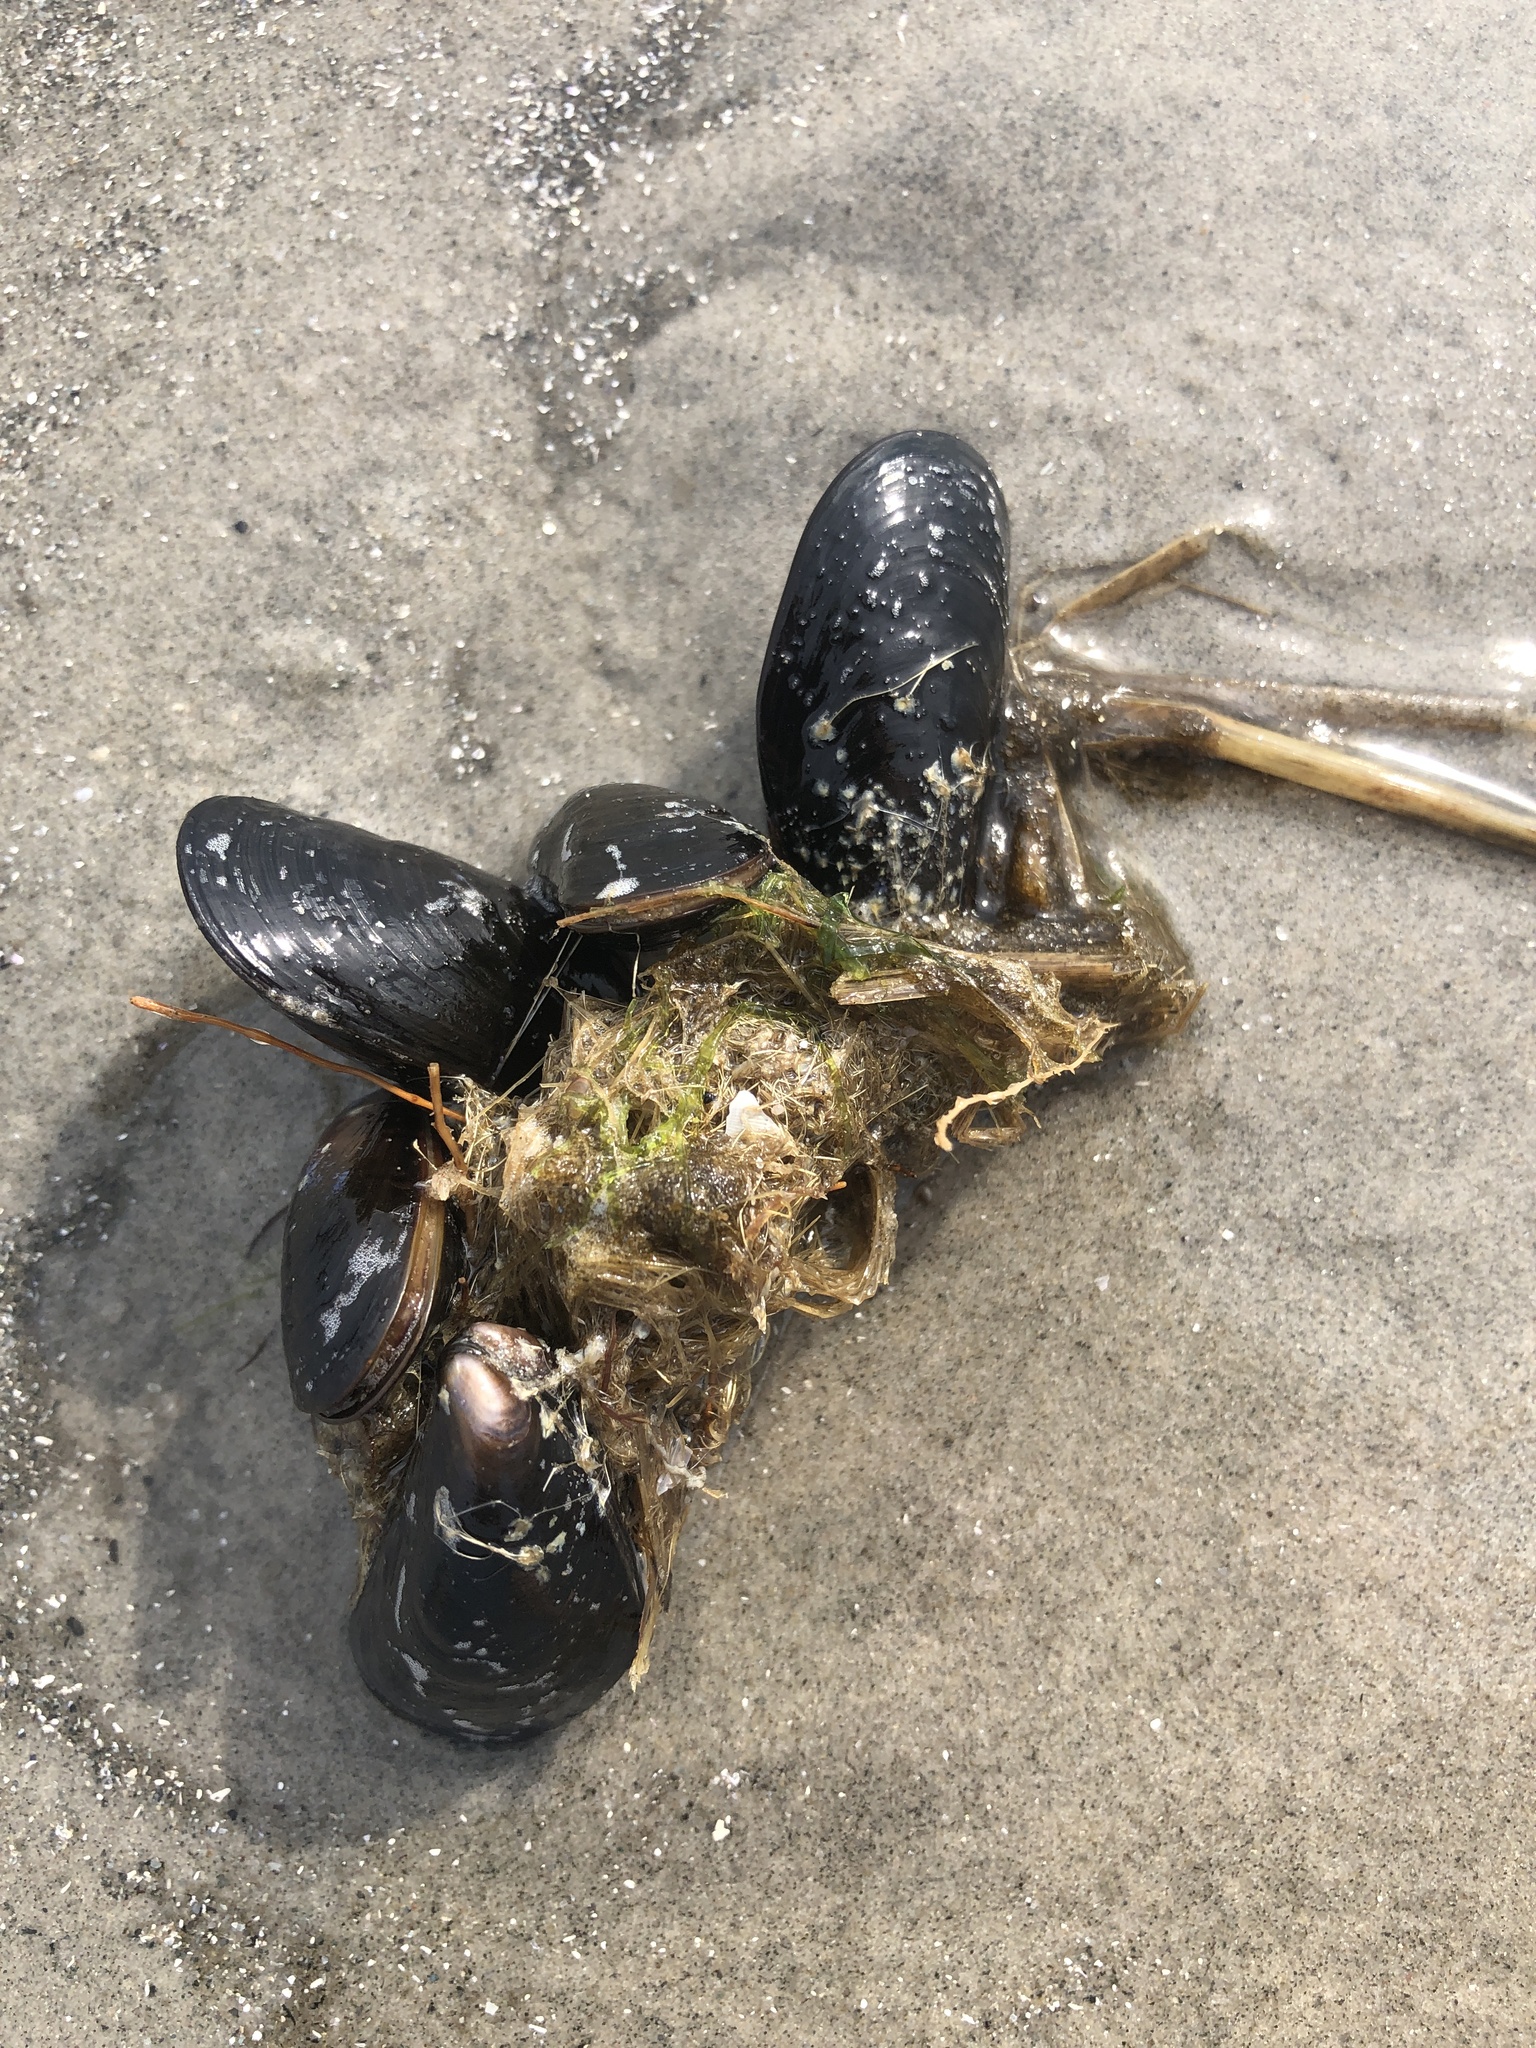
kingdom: Animalia
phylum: Mollusca
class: Bivalvia
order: Mytilida
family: Mytilidae
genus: Mytilus
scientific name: Mytilus edulis
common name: Blue mussel
